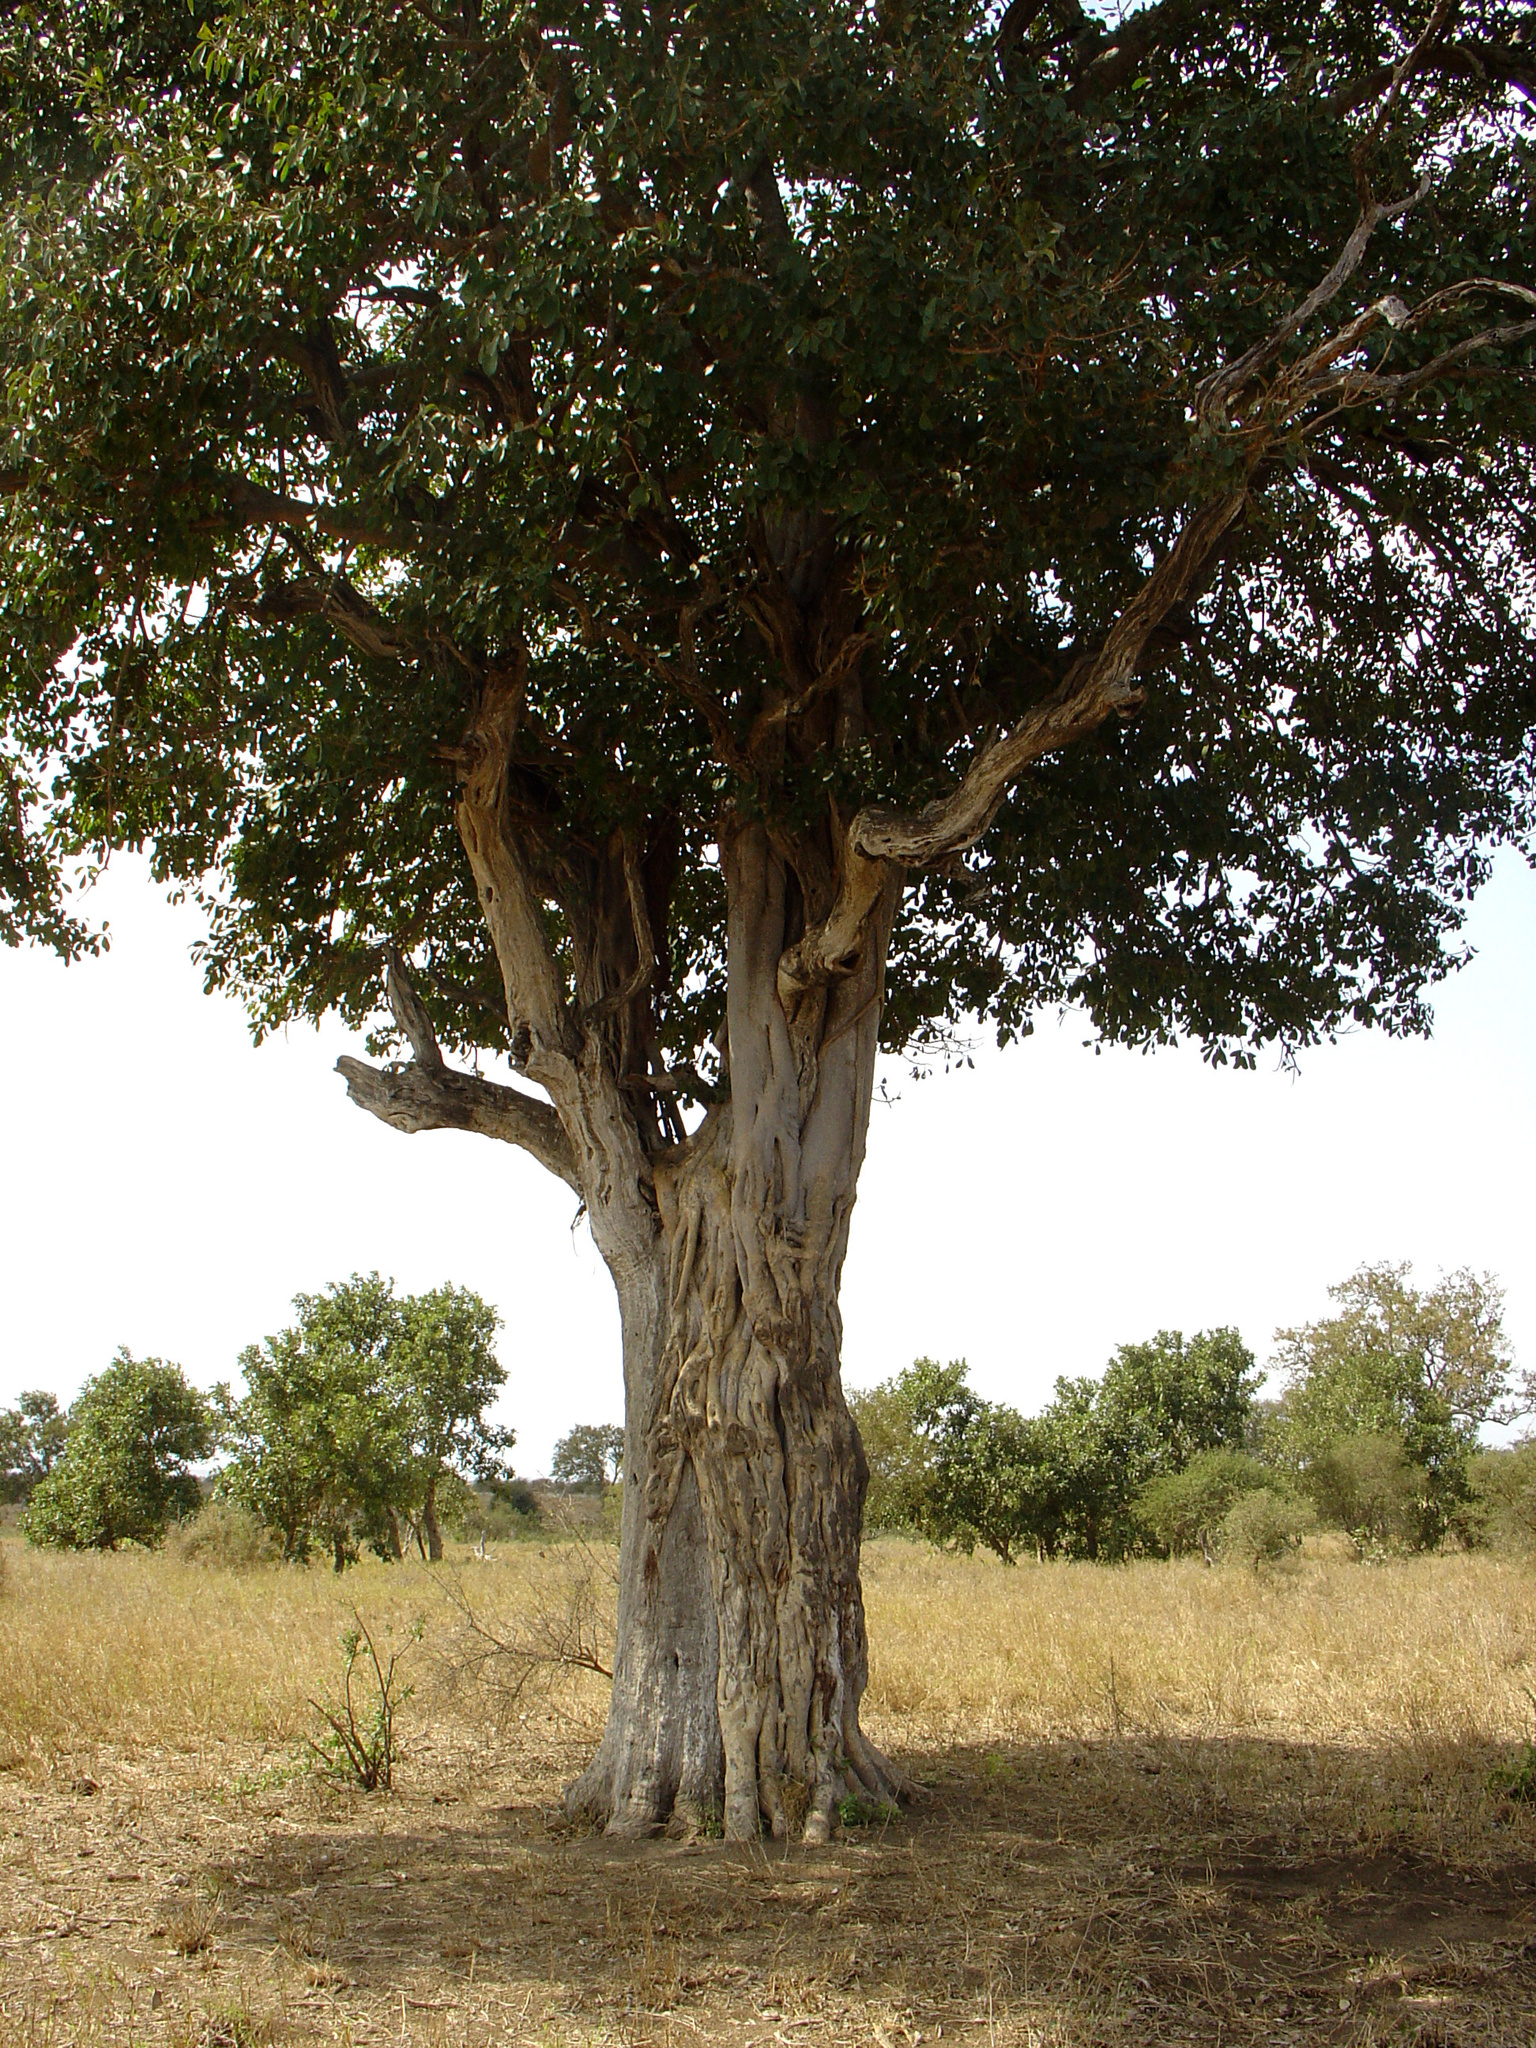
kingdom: Plantae
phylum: Tracheophyta
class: Magnoliopsida
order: Rosales
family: Moraceae
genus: Ficus
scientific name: Ficus petersii
